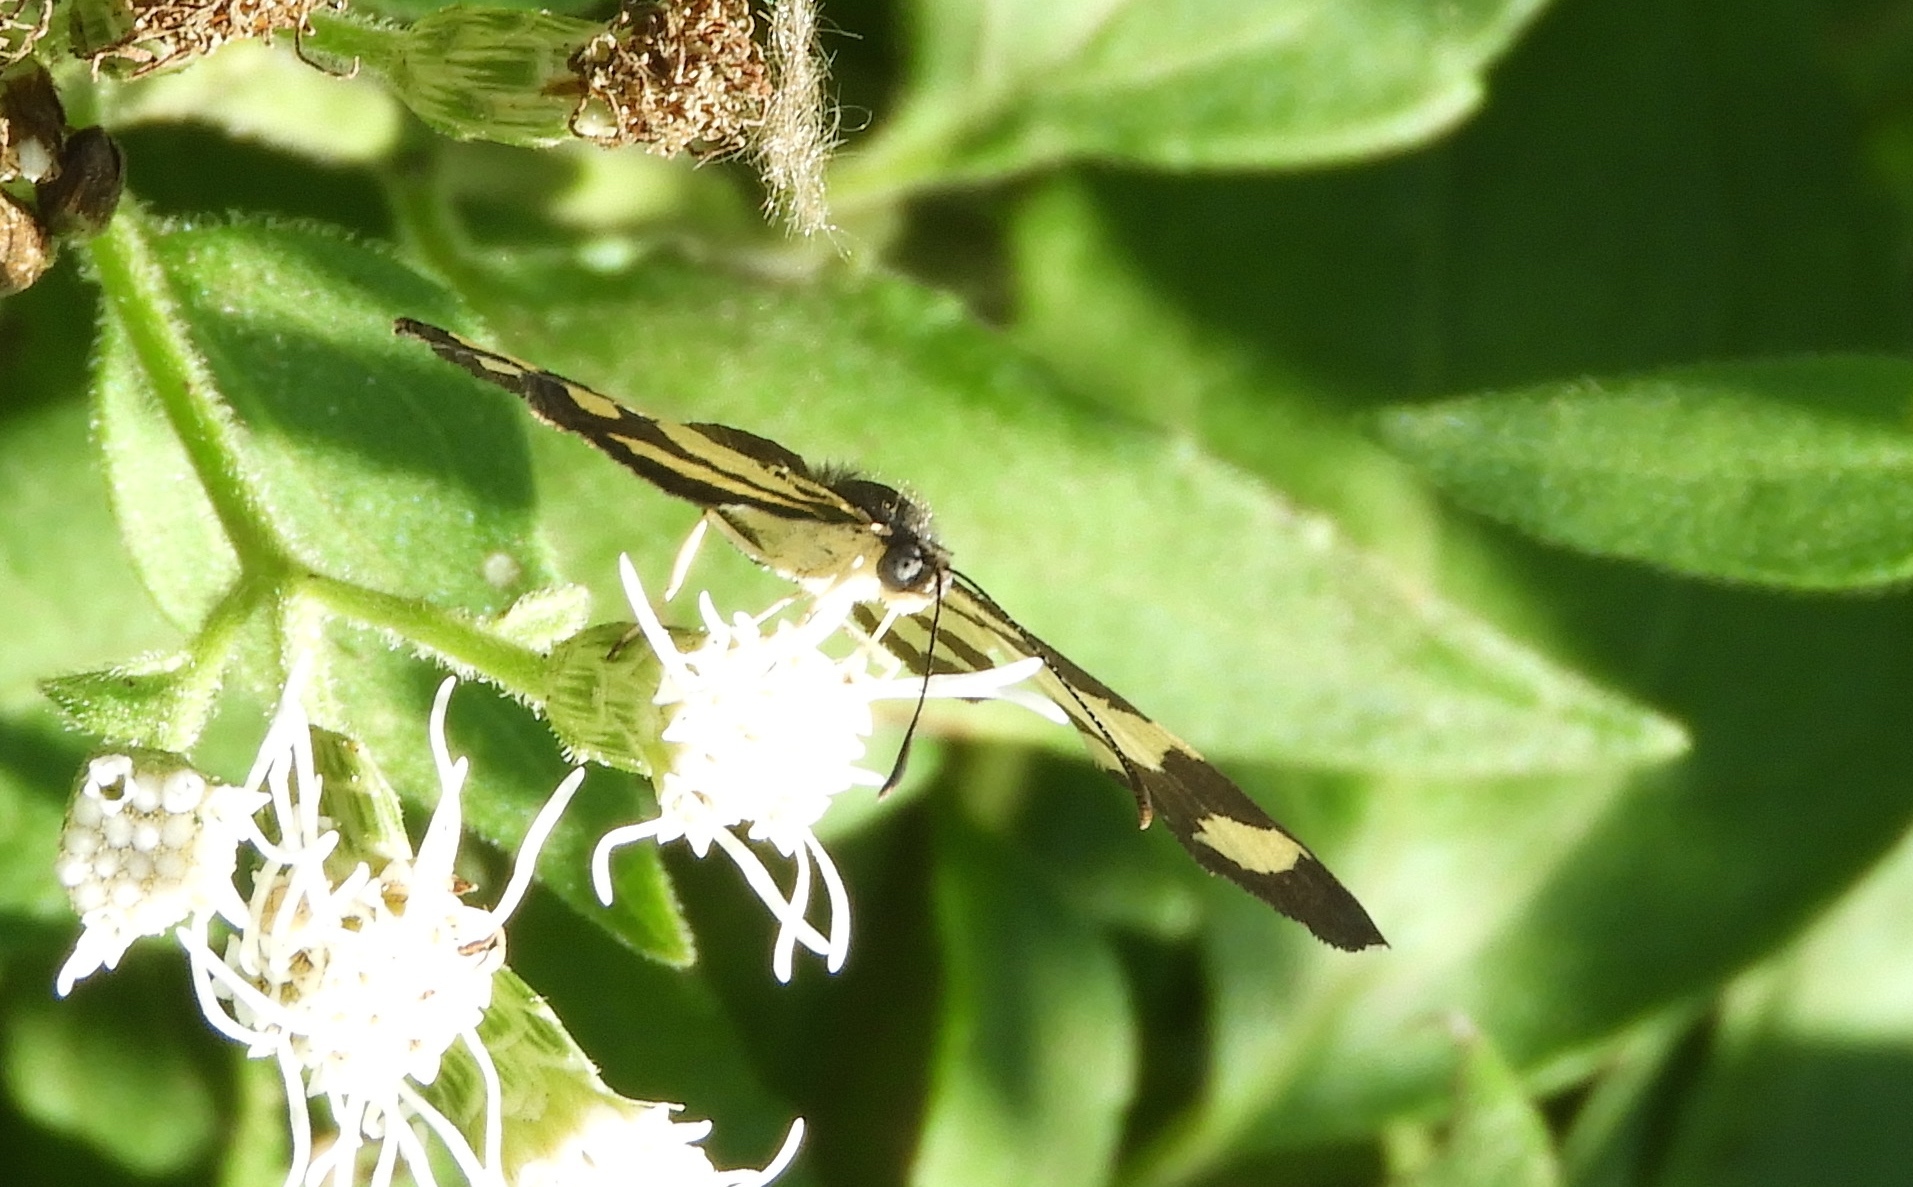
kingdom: Animalia
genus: Baeotis
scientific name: Baeotis zonata
